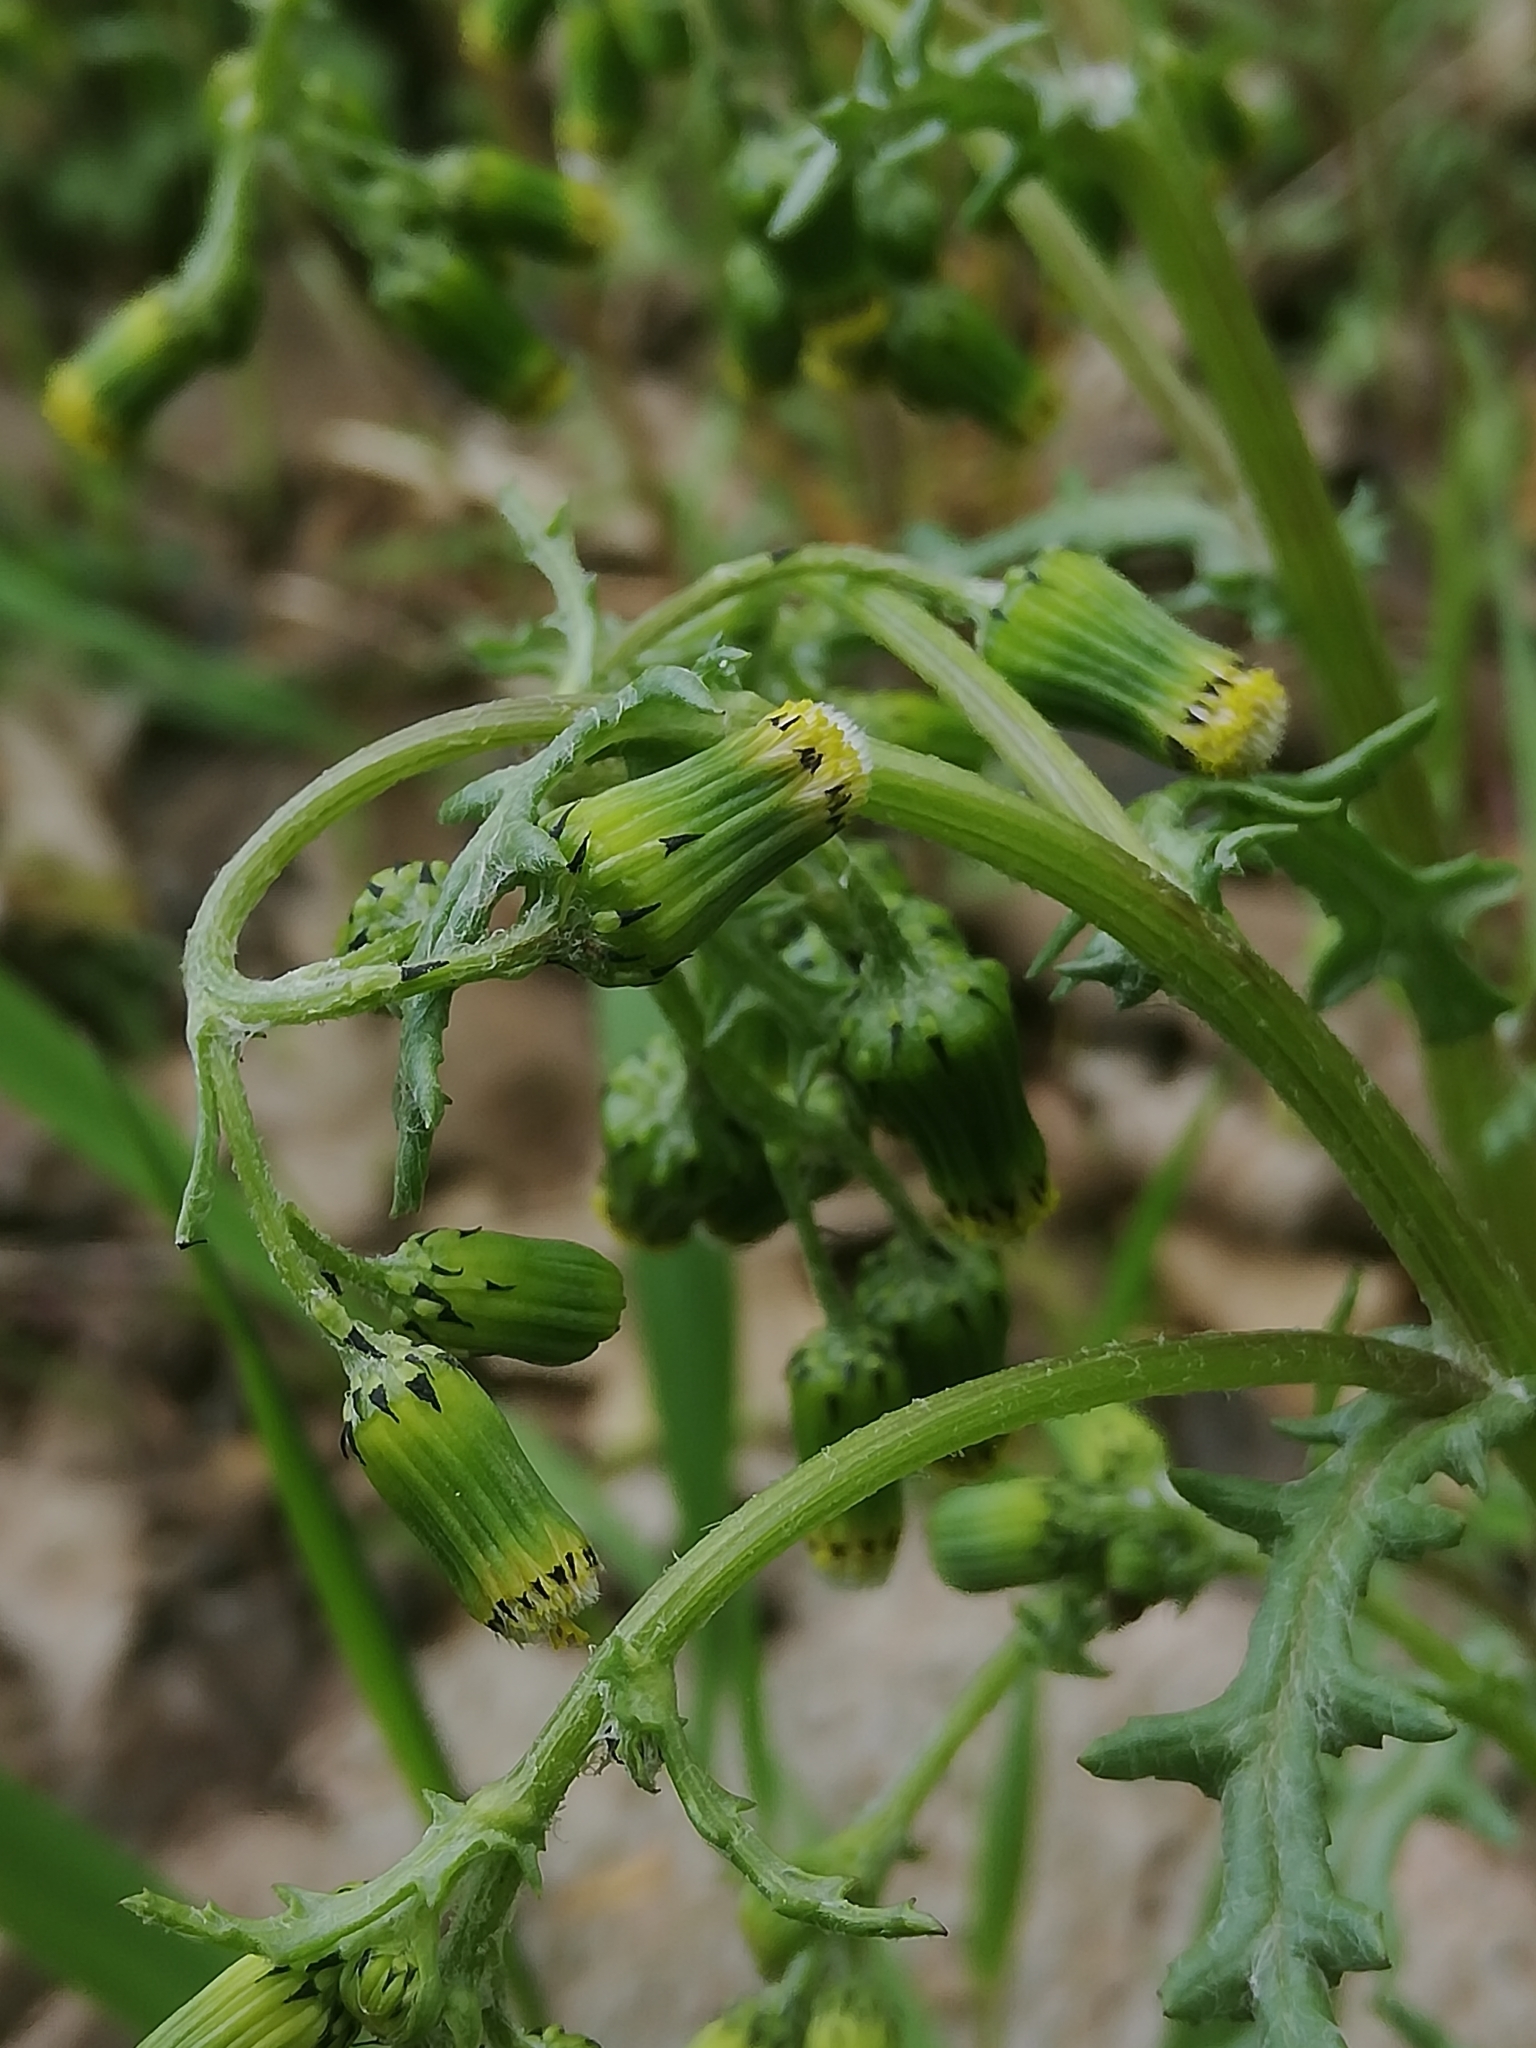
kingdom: Plantae
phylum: Tracheophyta
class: Magnoliopsida
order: Asterales
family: Asteraceae
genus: Senecio
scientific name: Senecio vulgaris
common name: Old-man-in-the-spring
